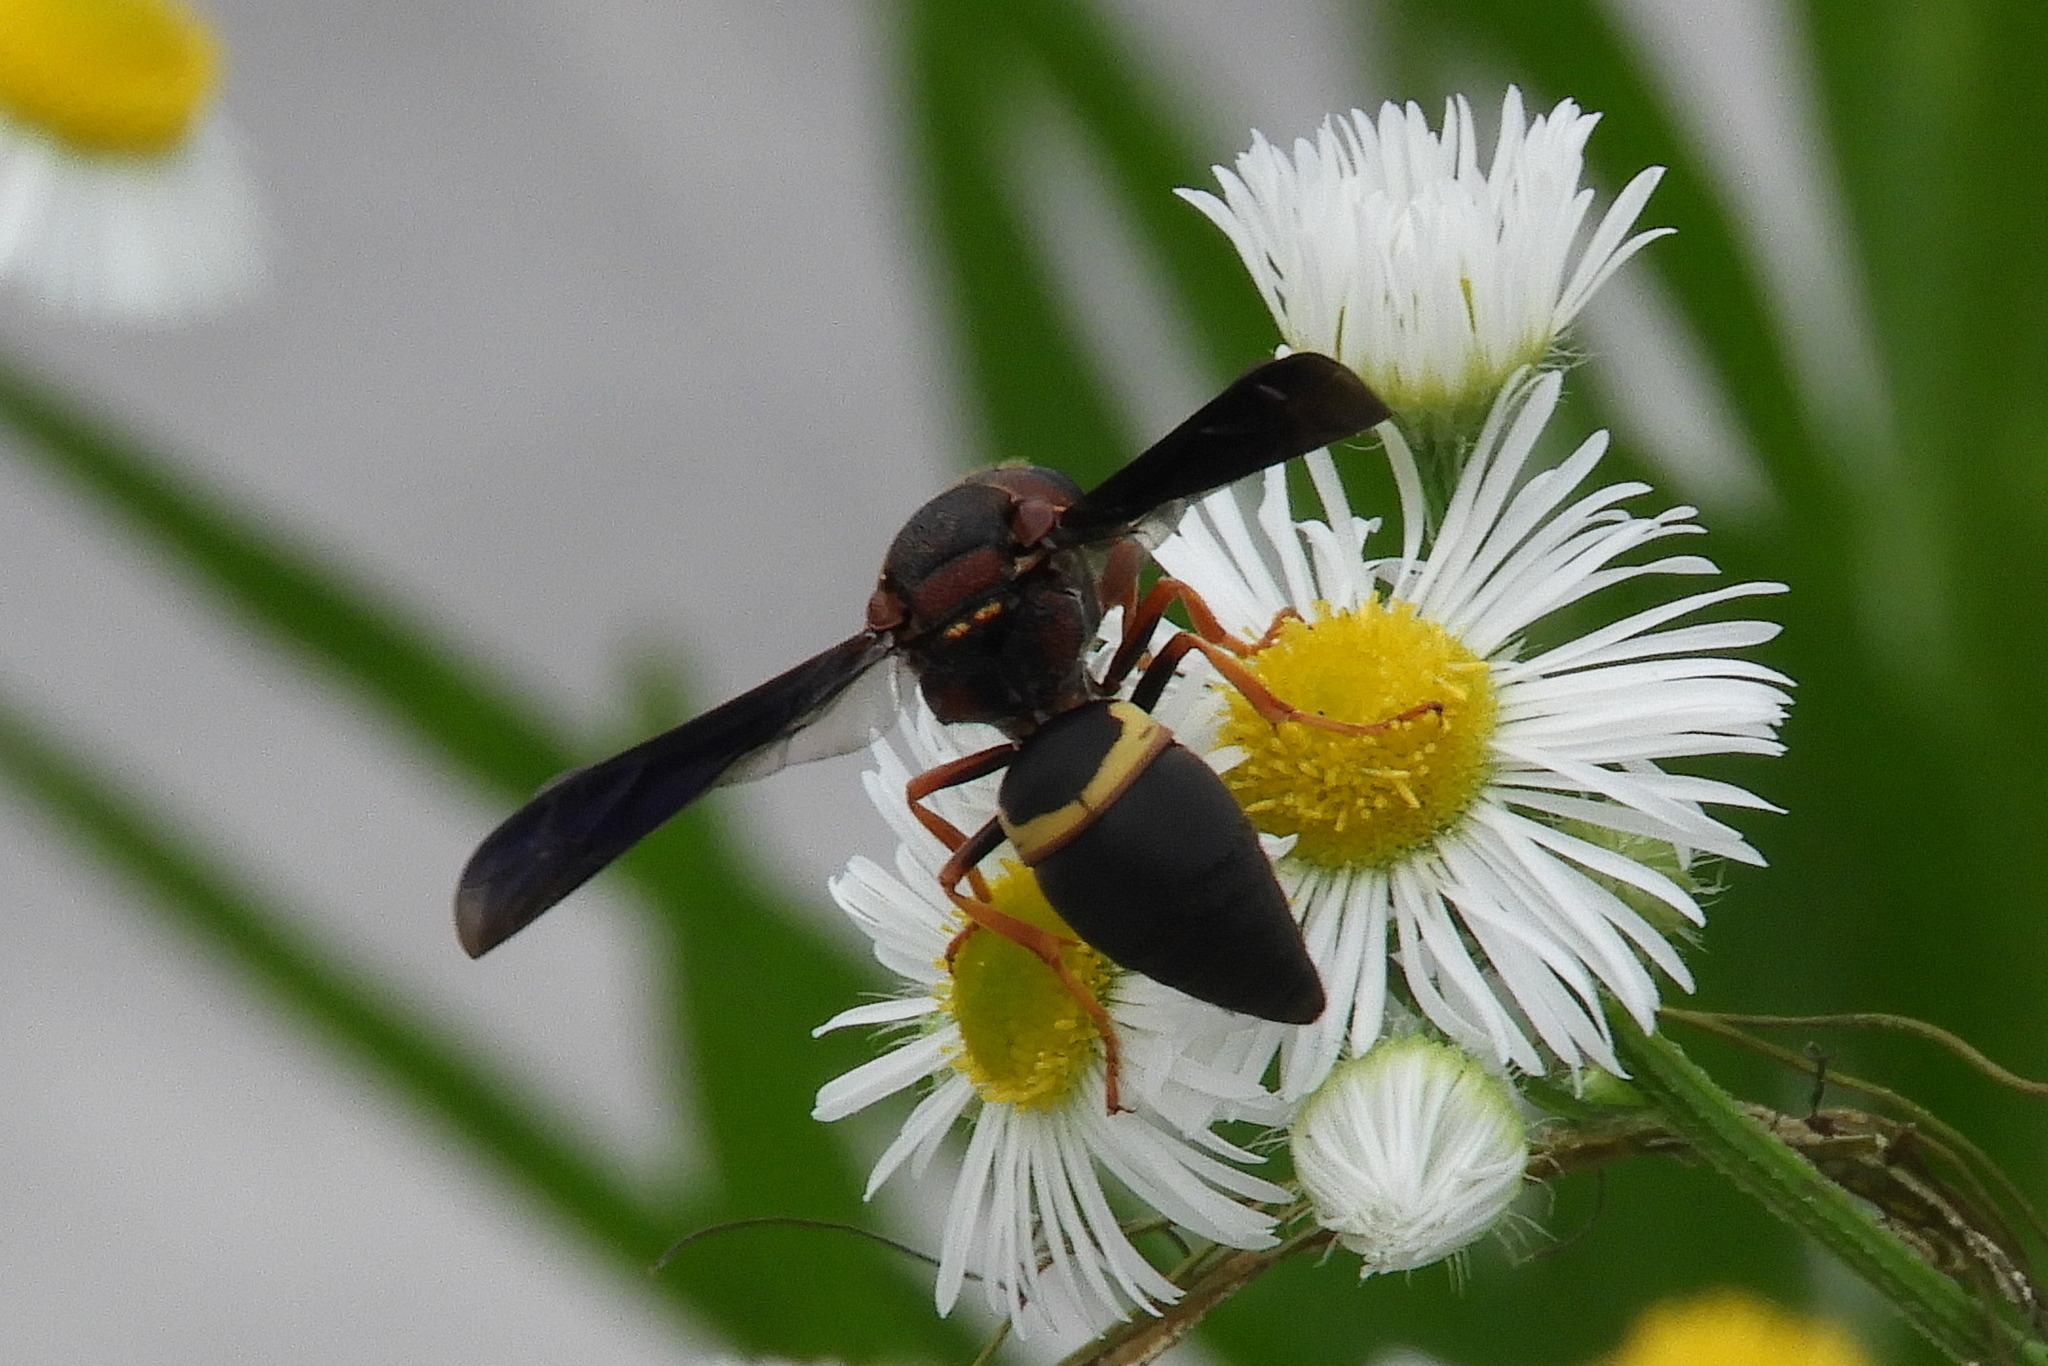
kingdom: Animalia
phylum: Arthropoda
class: Insecta
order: Hymenoptera
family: Eumenidae
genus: Euodynerus
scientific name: Euodynerus crypticus
